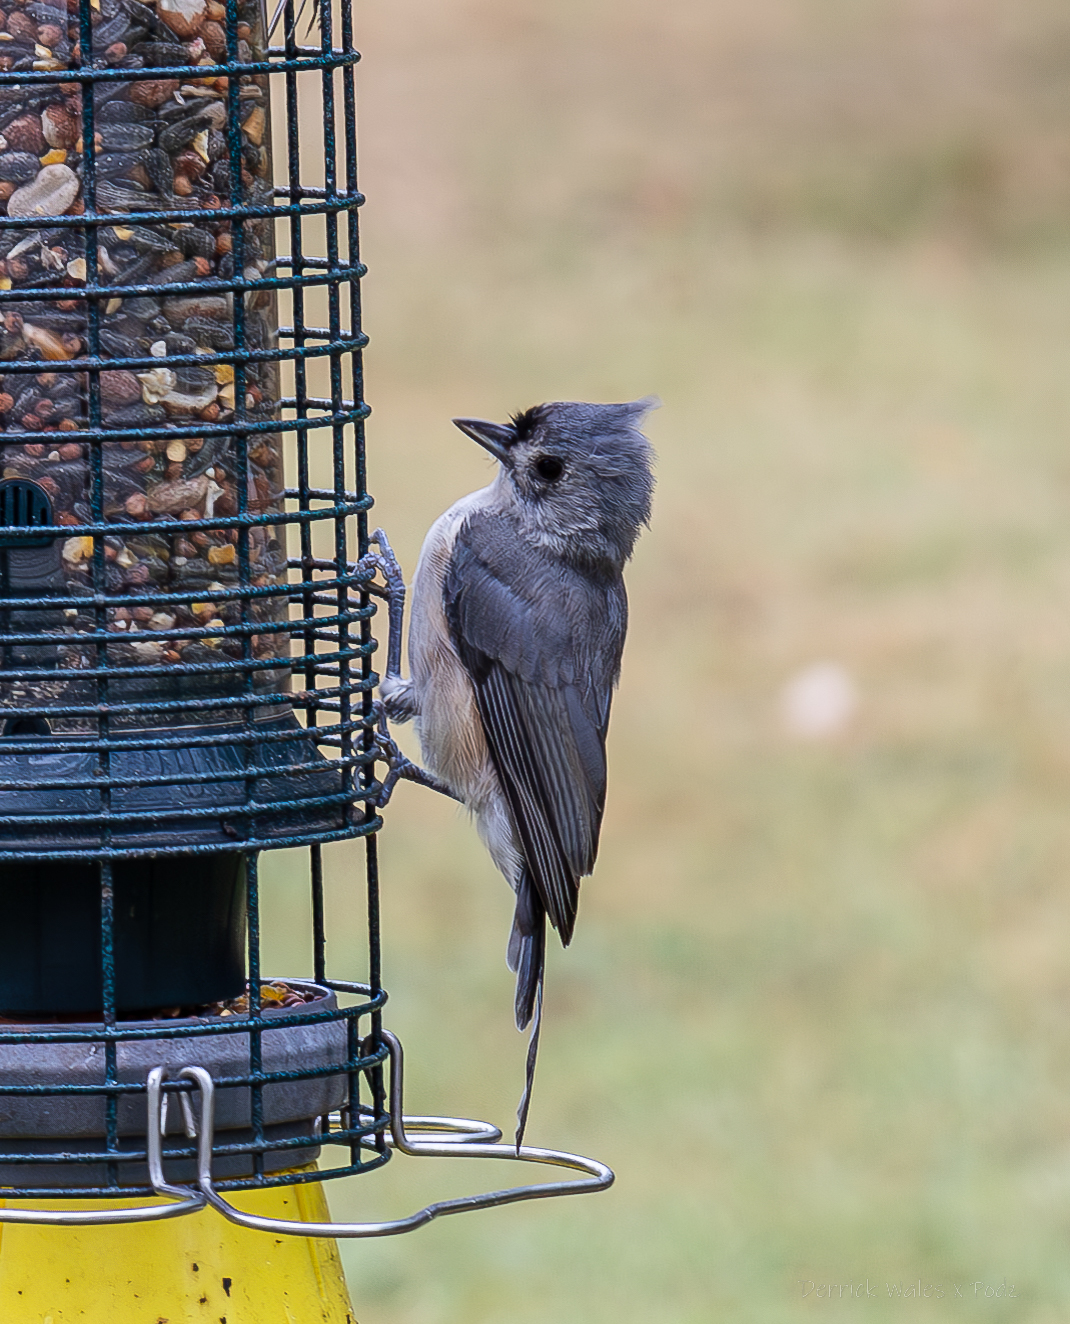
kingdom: Animalia
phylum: Chordata
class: Aves
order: Passeriformes
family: Paridae
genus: Baeolophus
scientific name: Baeolophus bicolor
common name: Tufted titmouse
